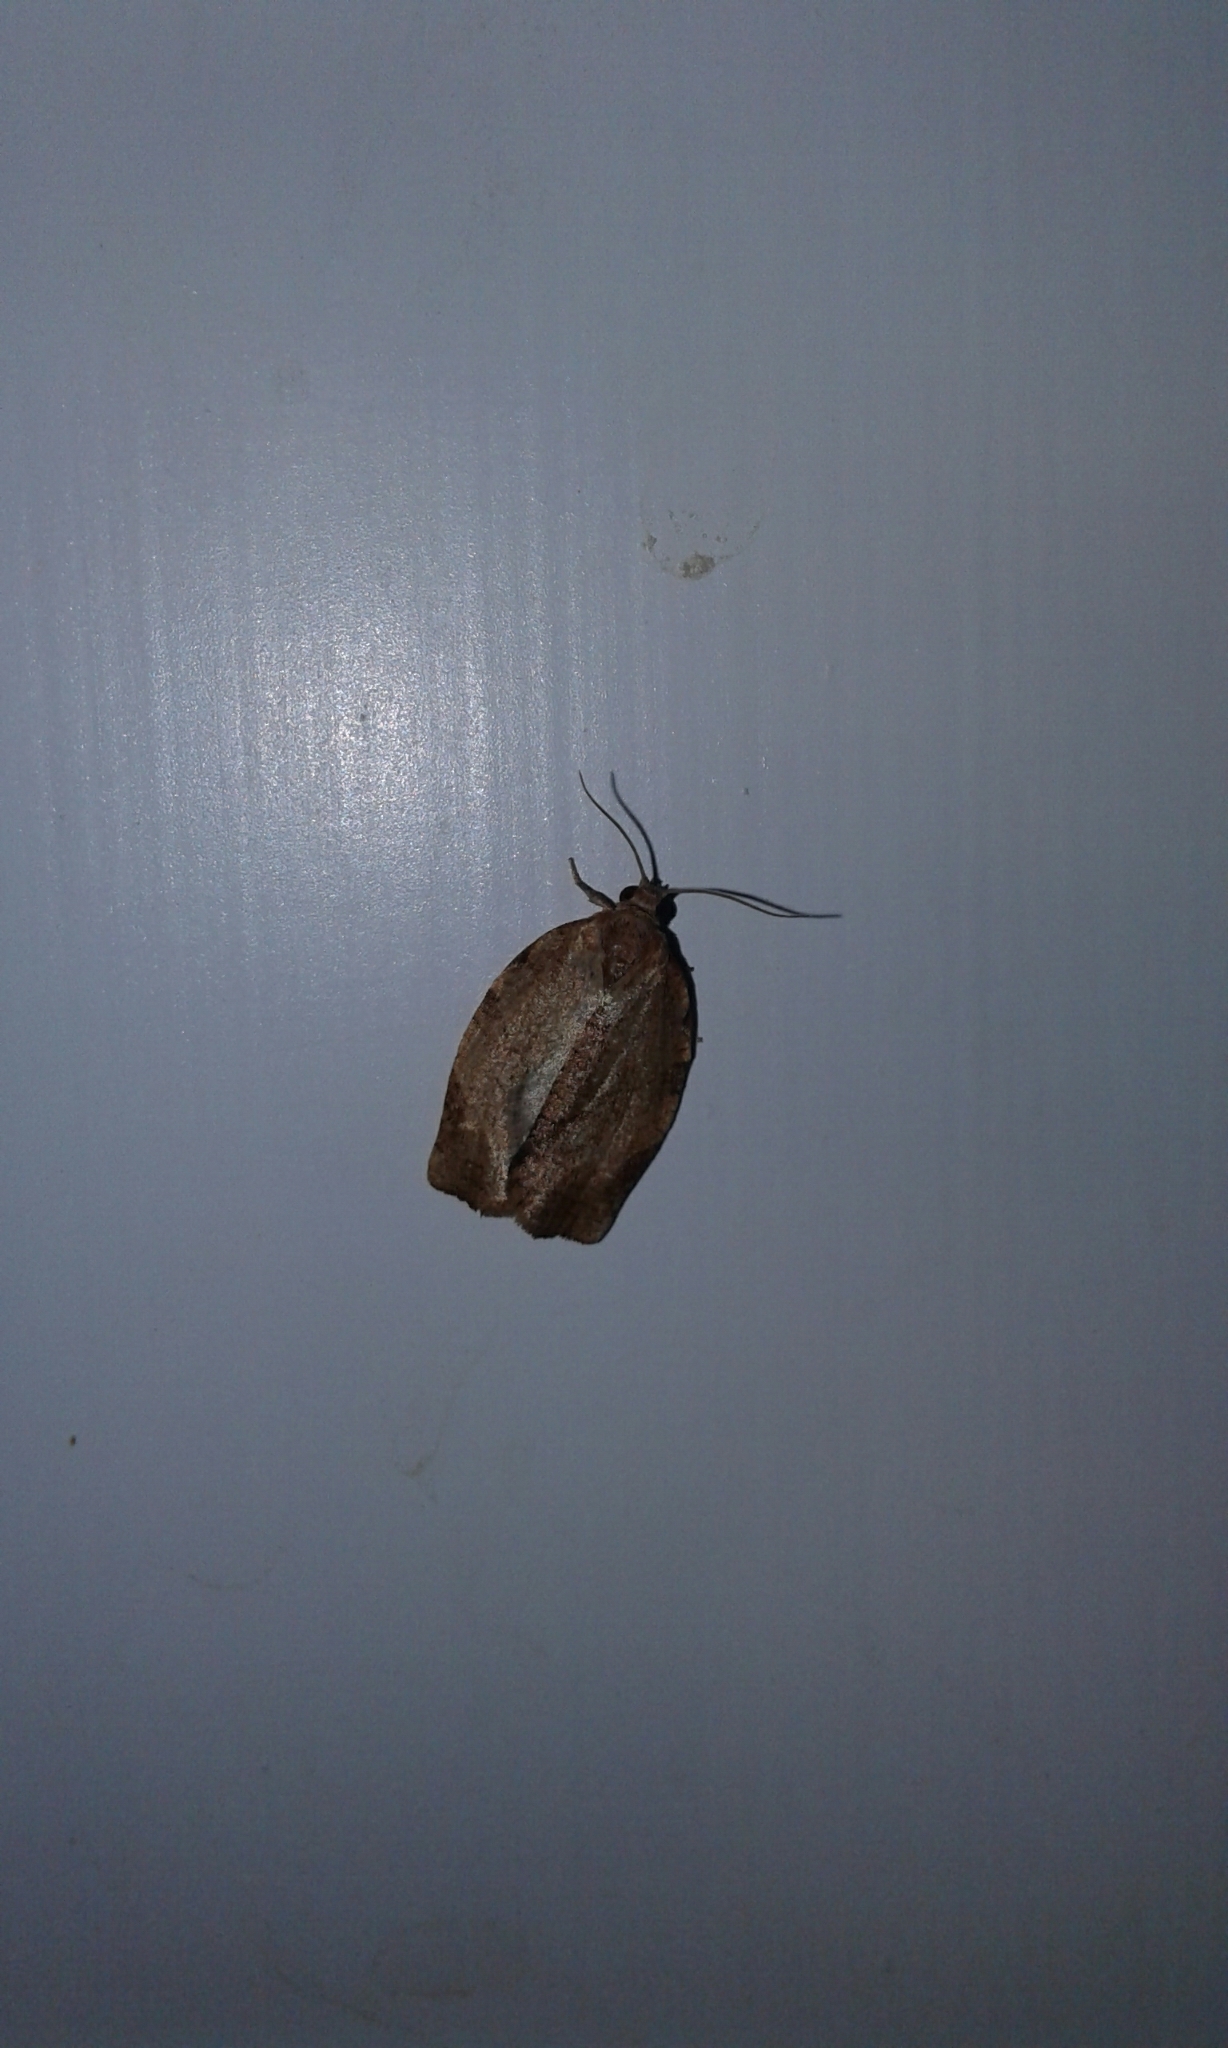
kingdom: Animalia
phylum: Arthropoda
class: Insecta
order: Lepidoptera
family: Tortricidae
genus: Choristoneura
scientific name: Choristoneura rosaceana
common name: Oblique-banded leafroller moth
